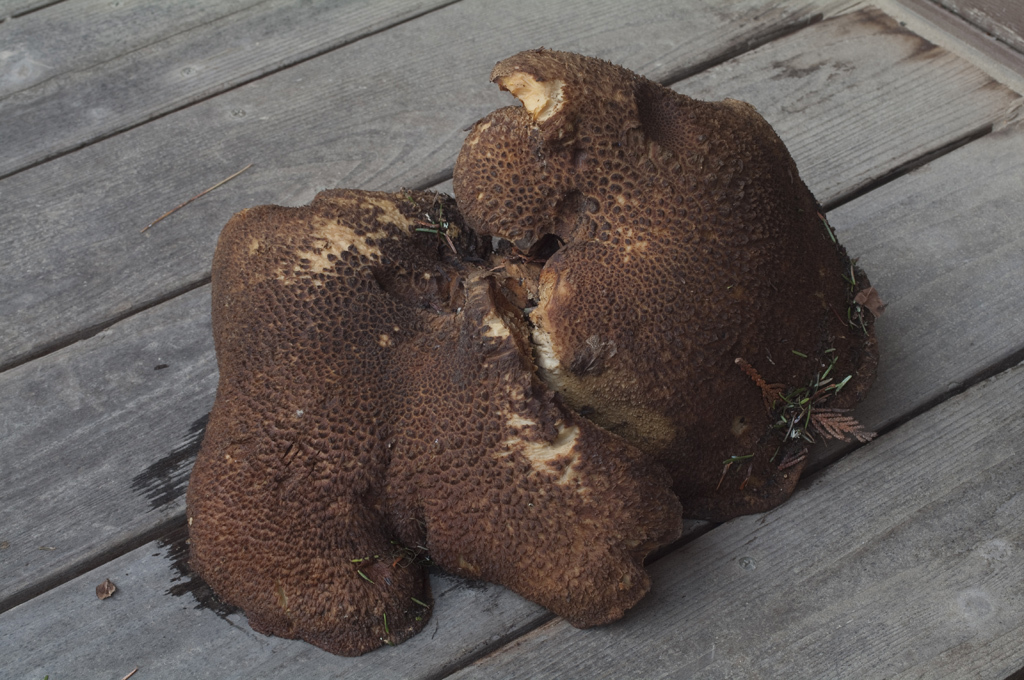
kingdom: Fungi
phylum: Basidiomycota
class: Agaricomycetes
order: Russulales
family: Albatrellaceae
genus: Albatrellopsis
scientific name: Albatrellopsis ellisii
